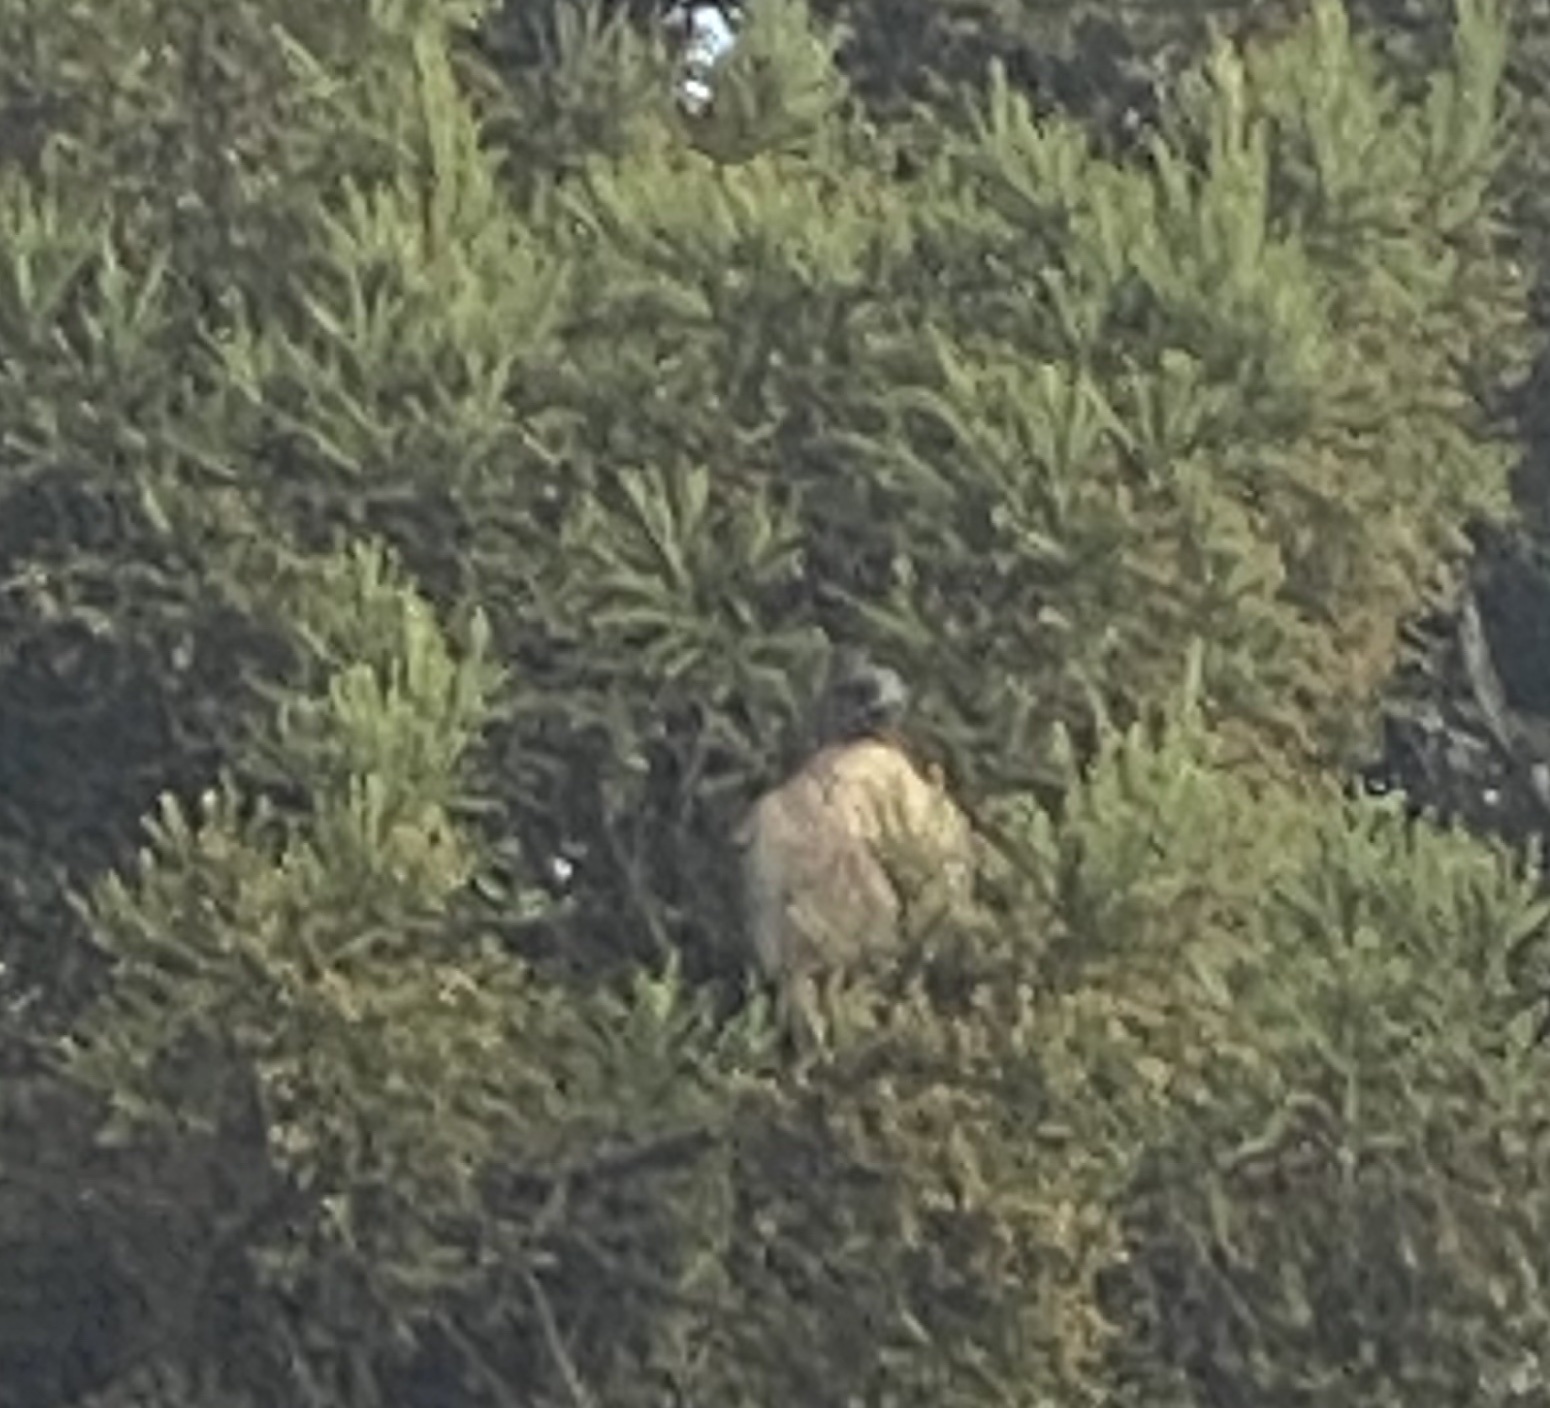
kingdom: Animalia
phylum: Chordata
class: Aves
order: Accipitriformes
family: Accipitridae
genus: Buteo
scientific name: Buteo jamaicensis
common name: Red-tailed hawk
